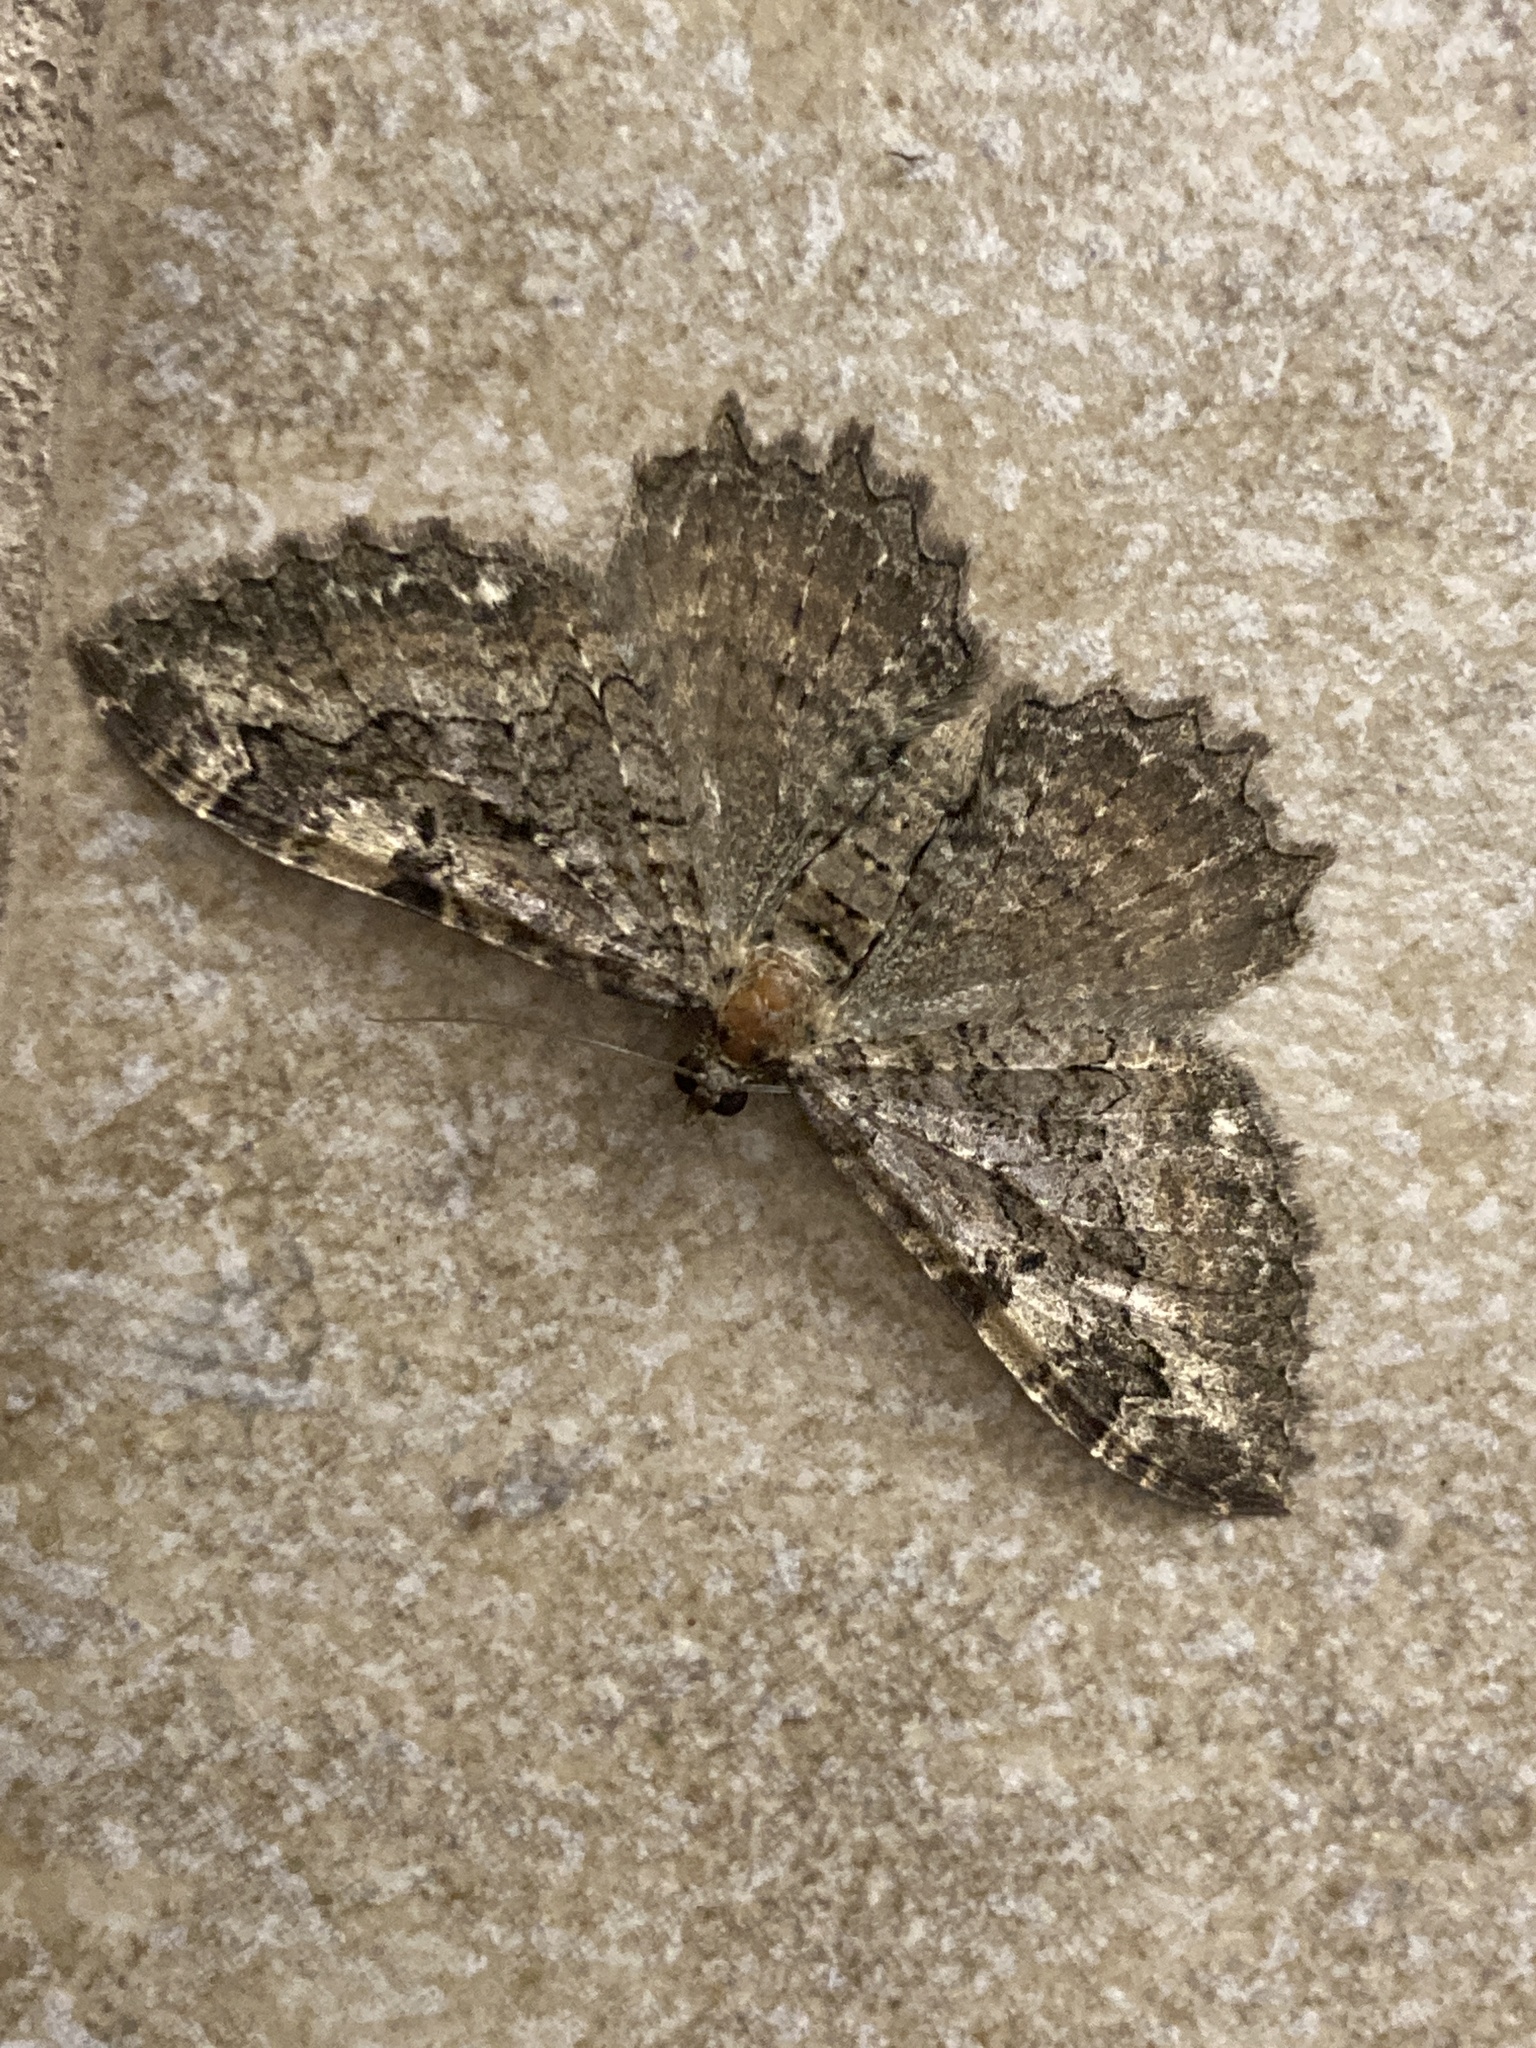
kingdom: Animalia
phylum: Arthropoda
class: Insecta
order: Lepidoptera
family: Geometridae
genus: Rheumaptera
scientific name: Rheumaptera
